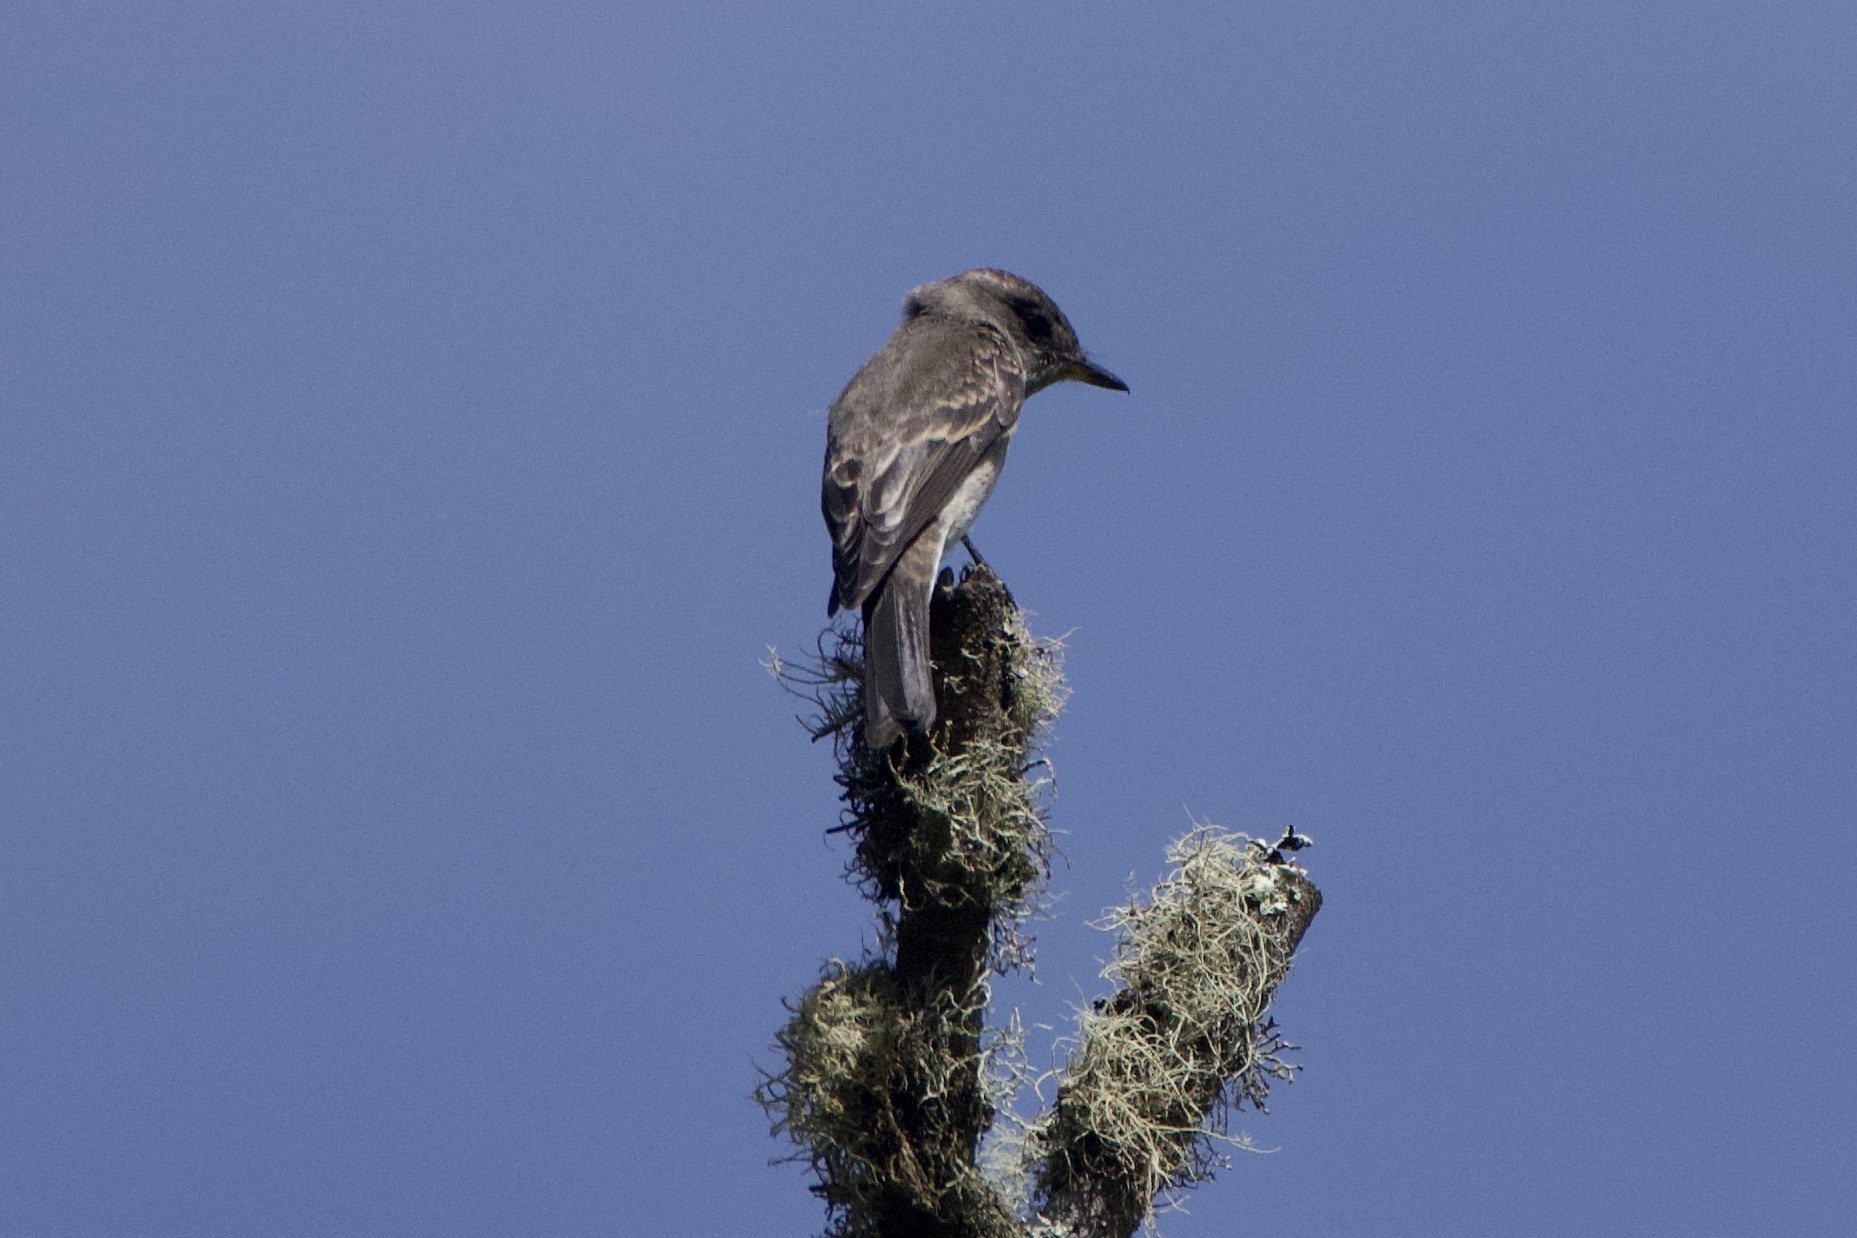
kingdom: Animalia
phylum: Chordata
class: Aves
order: Passeriformes
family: Tyrannidae
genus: Contopus
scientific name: Contopus sordidulus
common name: Western wood-pewee
